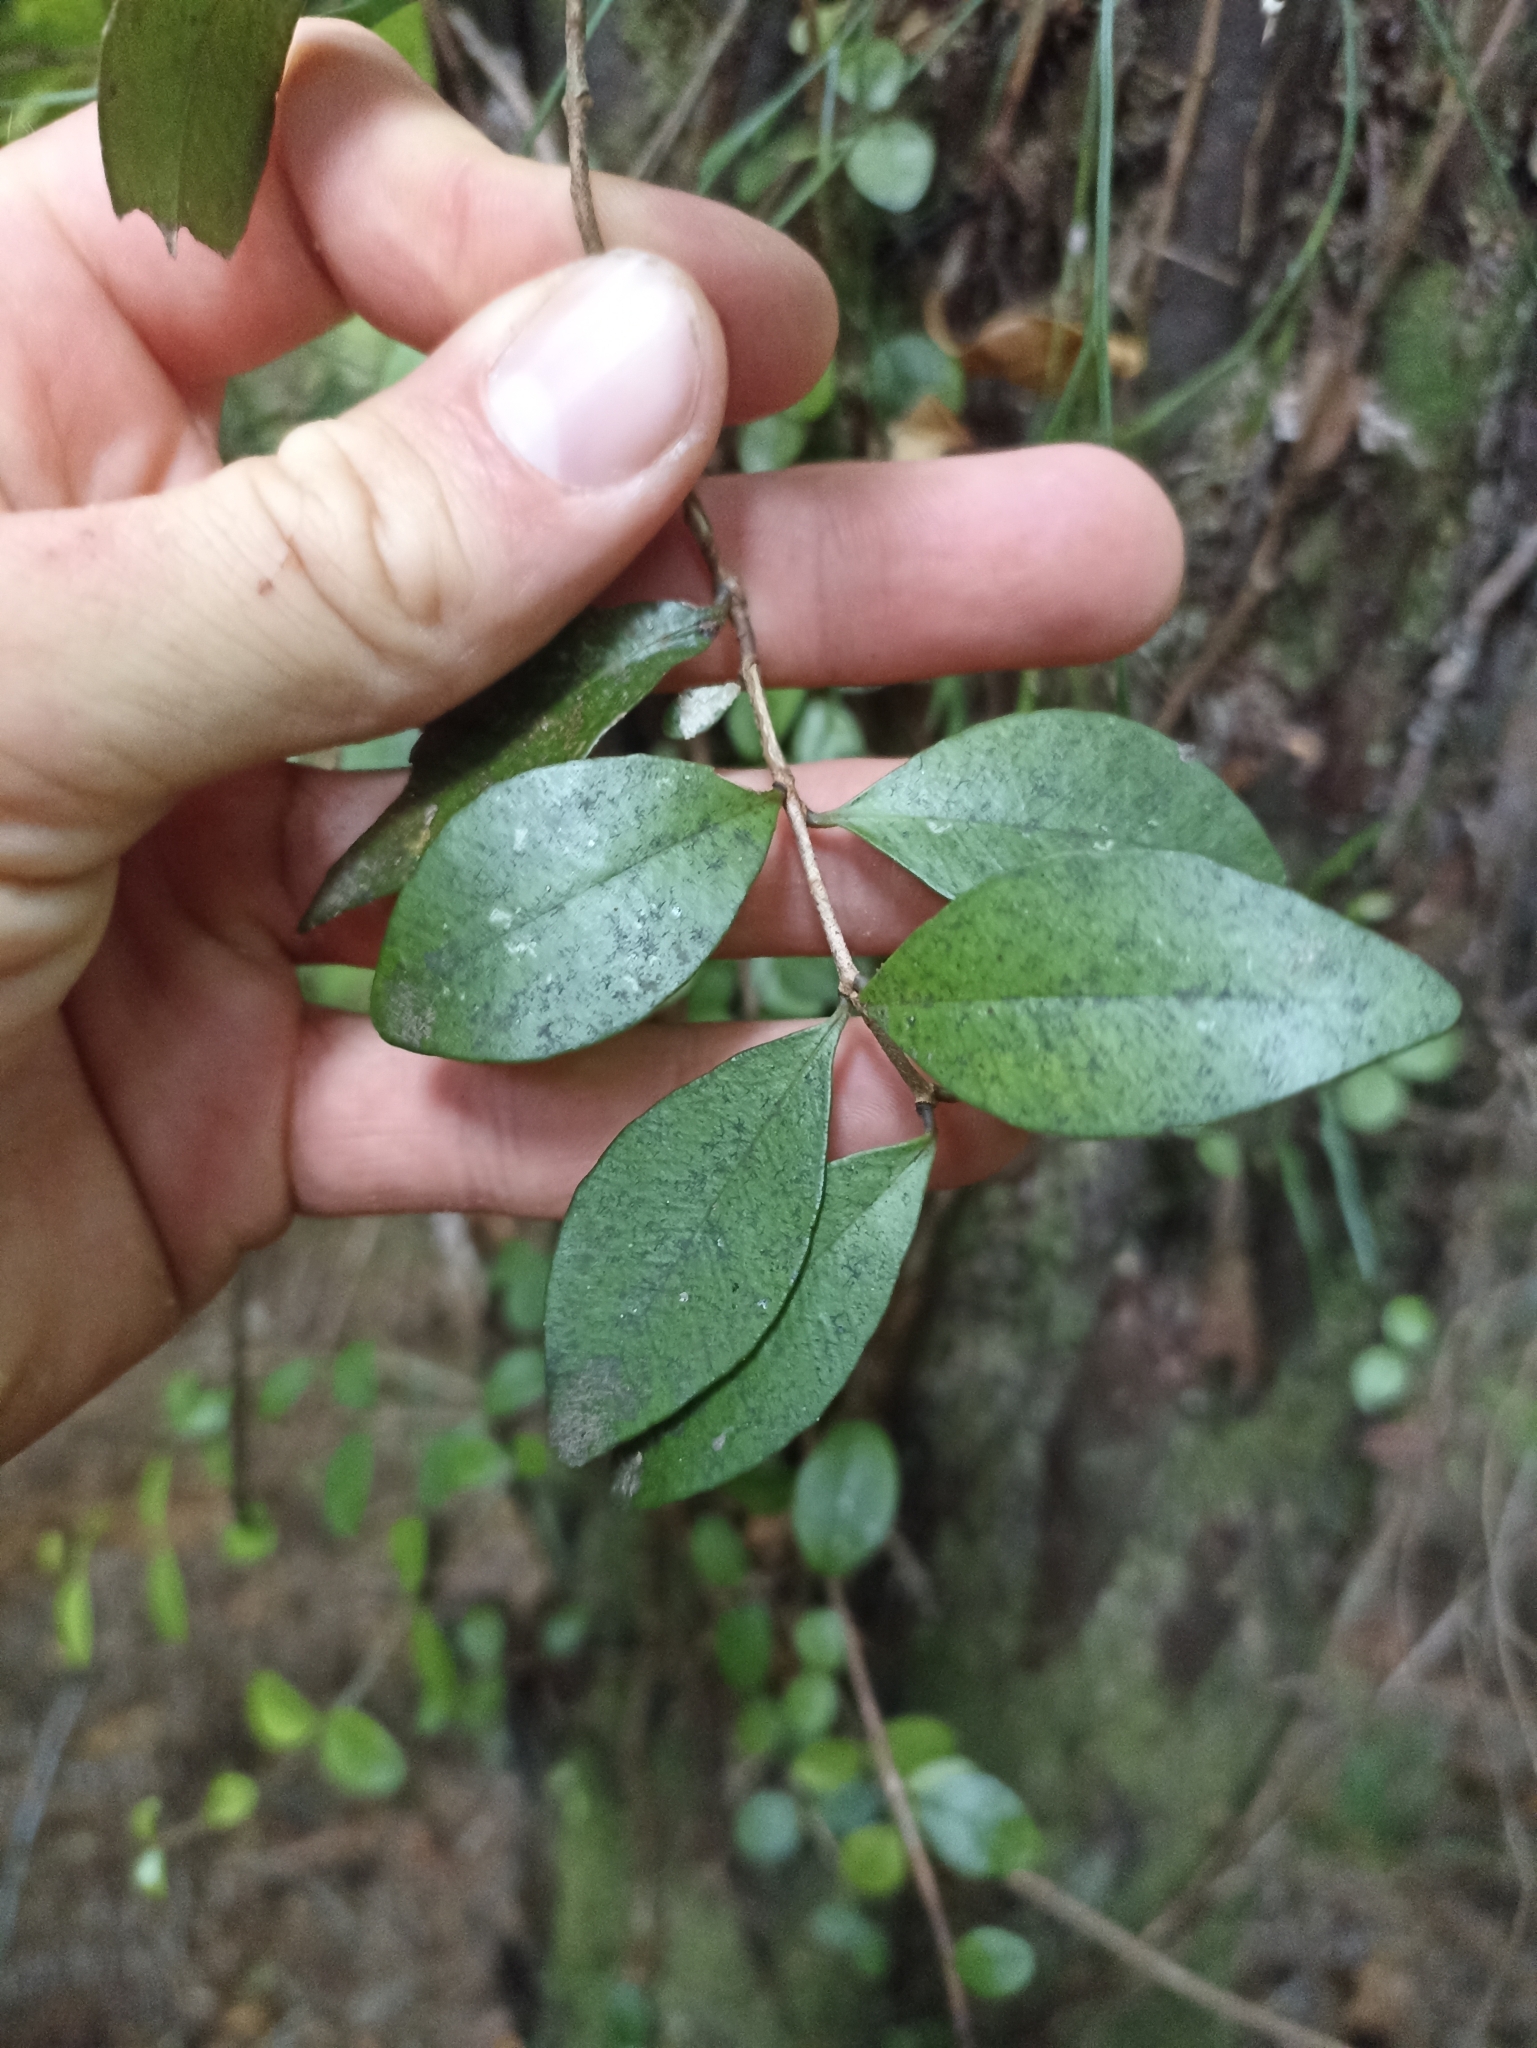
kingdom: Plantae
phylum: Tracheophyta
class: Magnoliopsida
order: Myrtales
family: Myrtaceae
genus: Metrosideros
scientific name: Metrosideros fulgens
